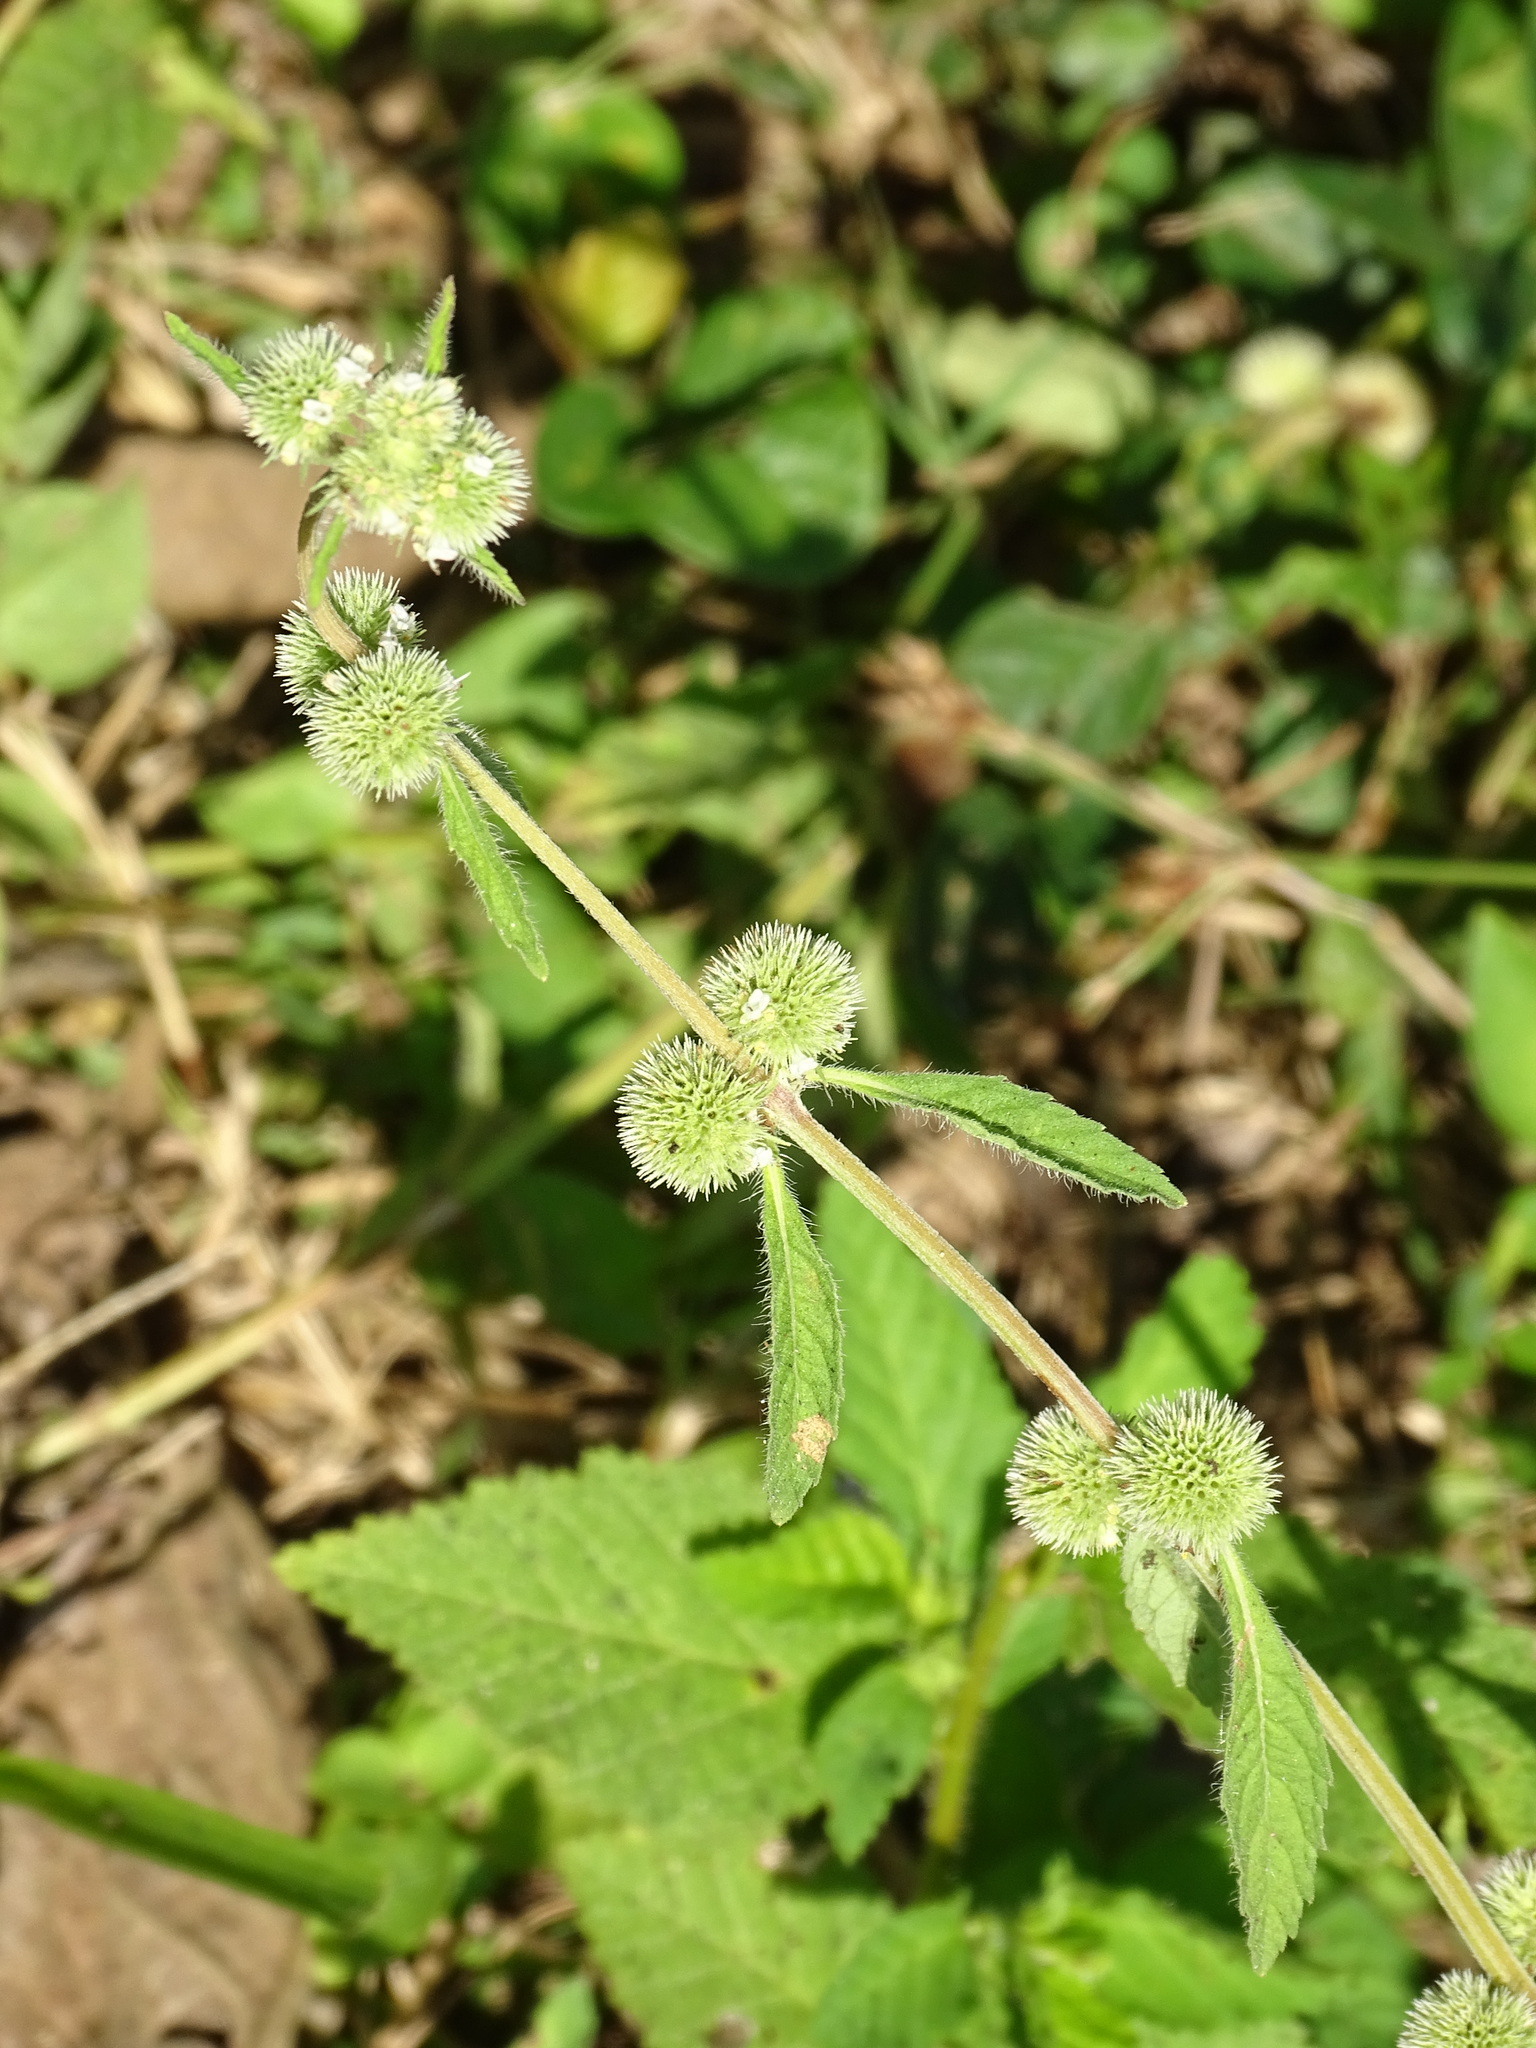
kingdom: Plantae
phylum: Tracheophyta
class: Magnoliopsida
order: Lamiales
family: Lamiaceae
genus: Hyptis
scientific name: Hyptis capitata
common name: False ironwort
